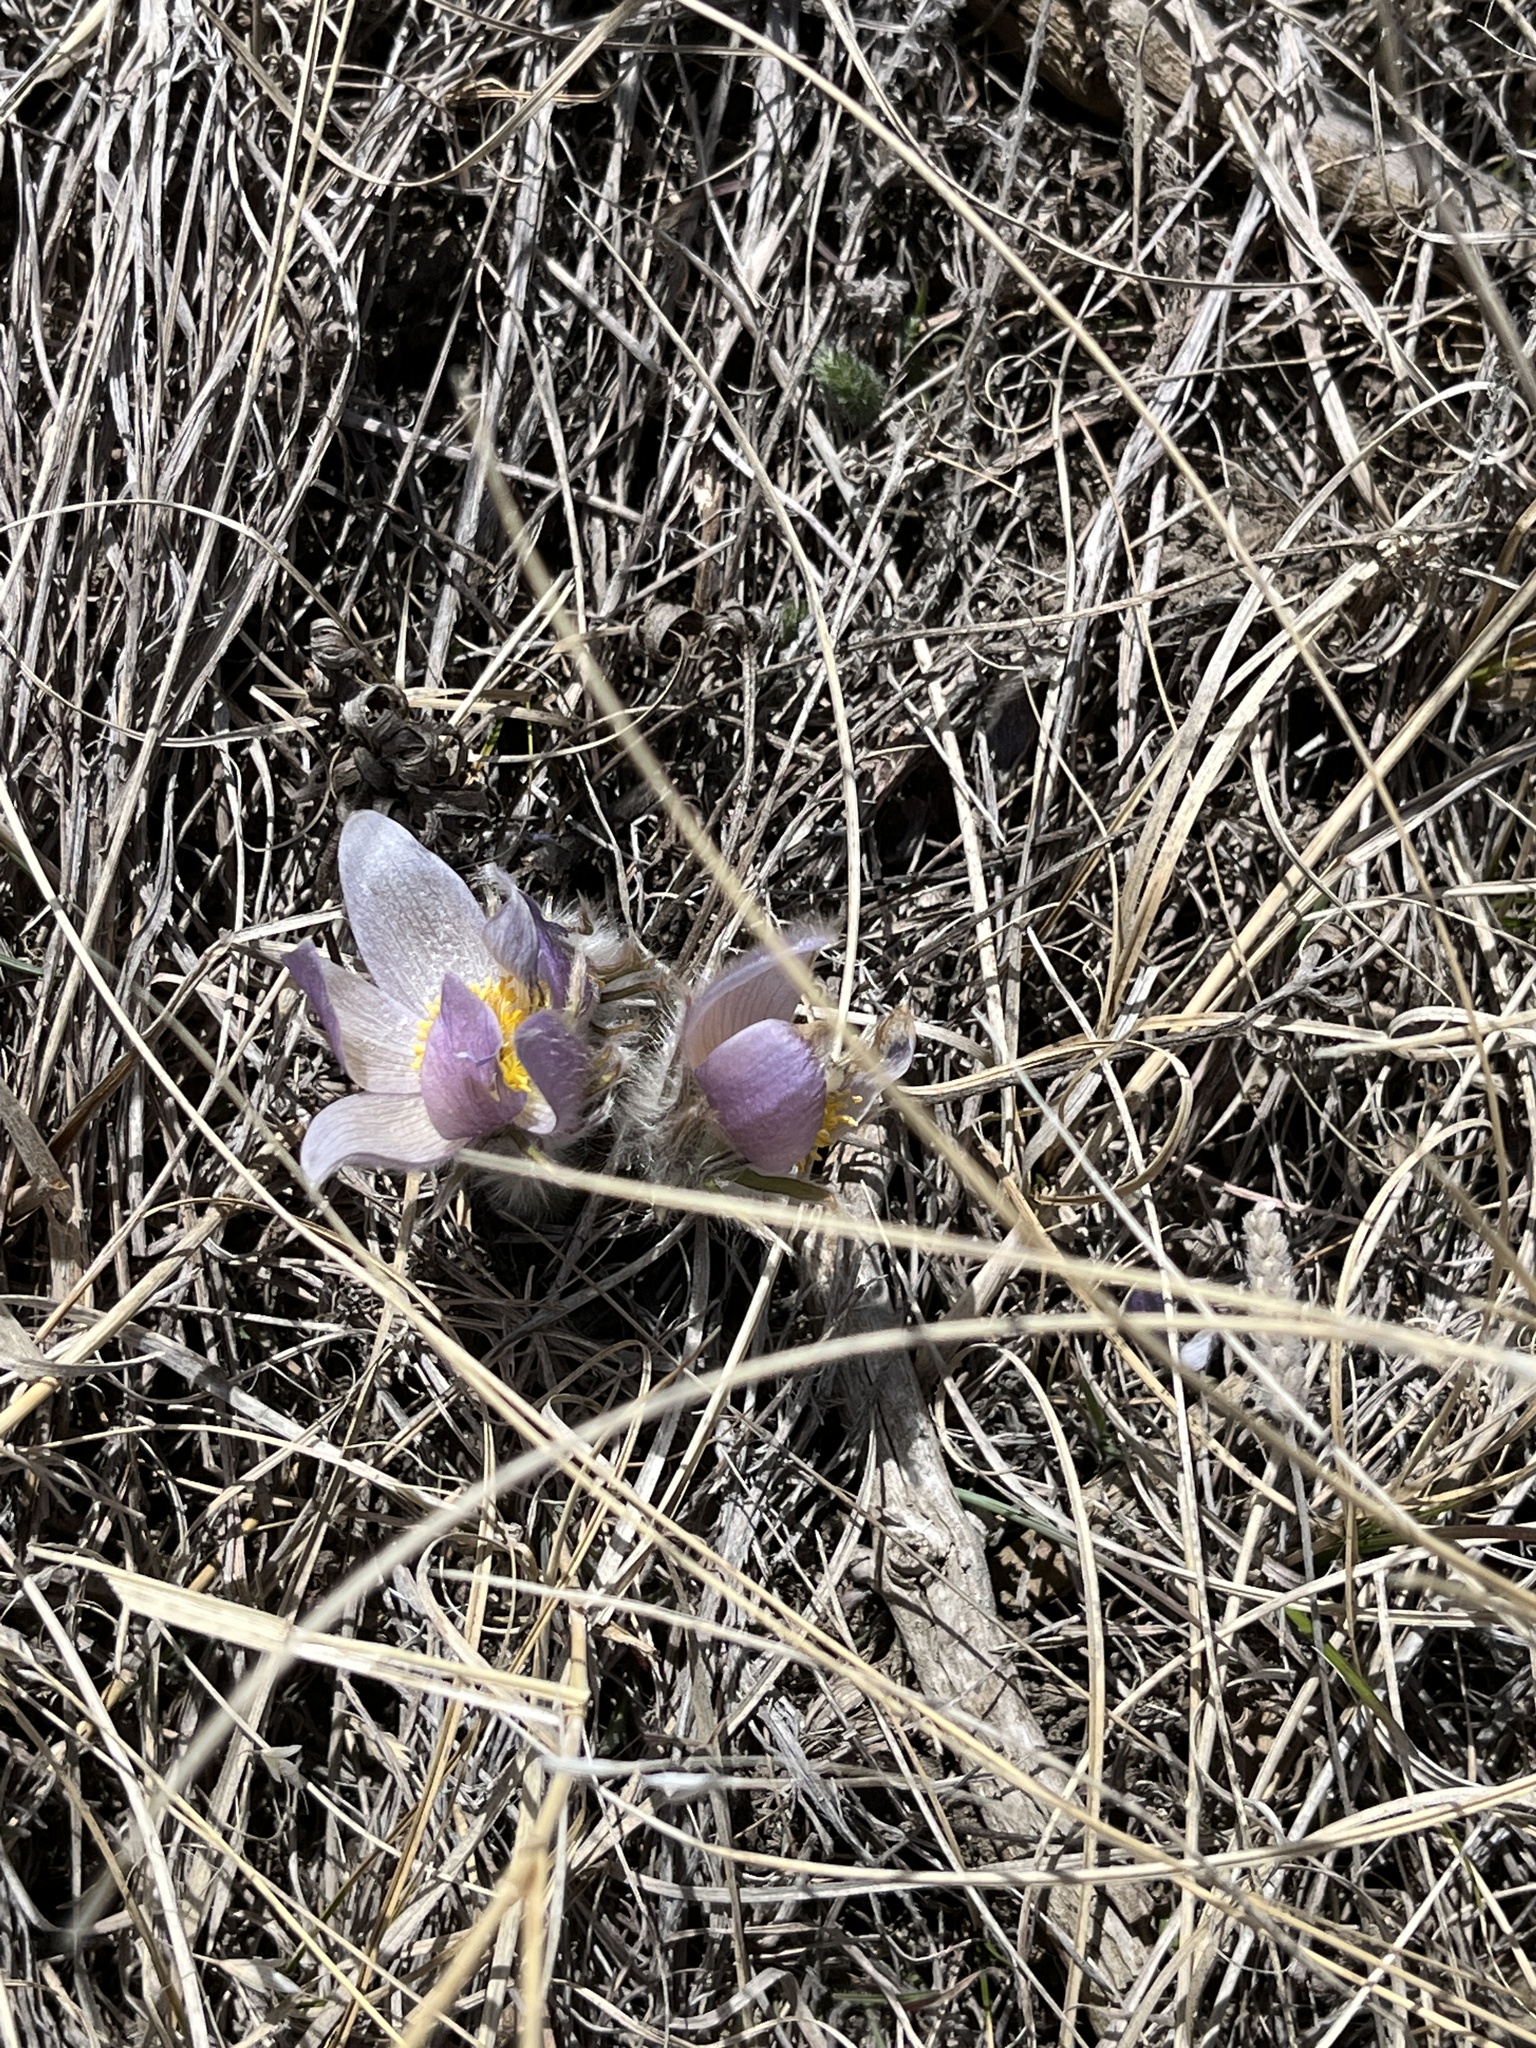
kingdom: Plantae
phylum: Tracheophyta
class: Magnoliopsida
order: Ranunculales
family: Ranunculaceae
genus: Pulsatilla
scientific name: Pulsatilla nuttalliana
